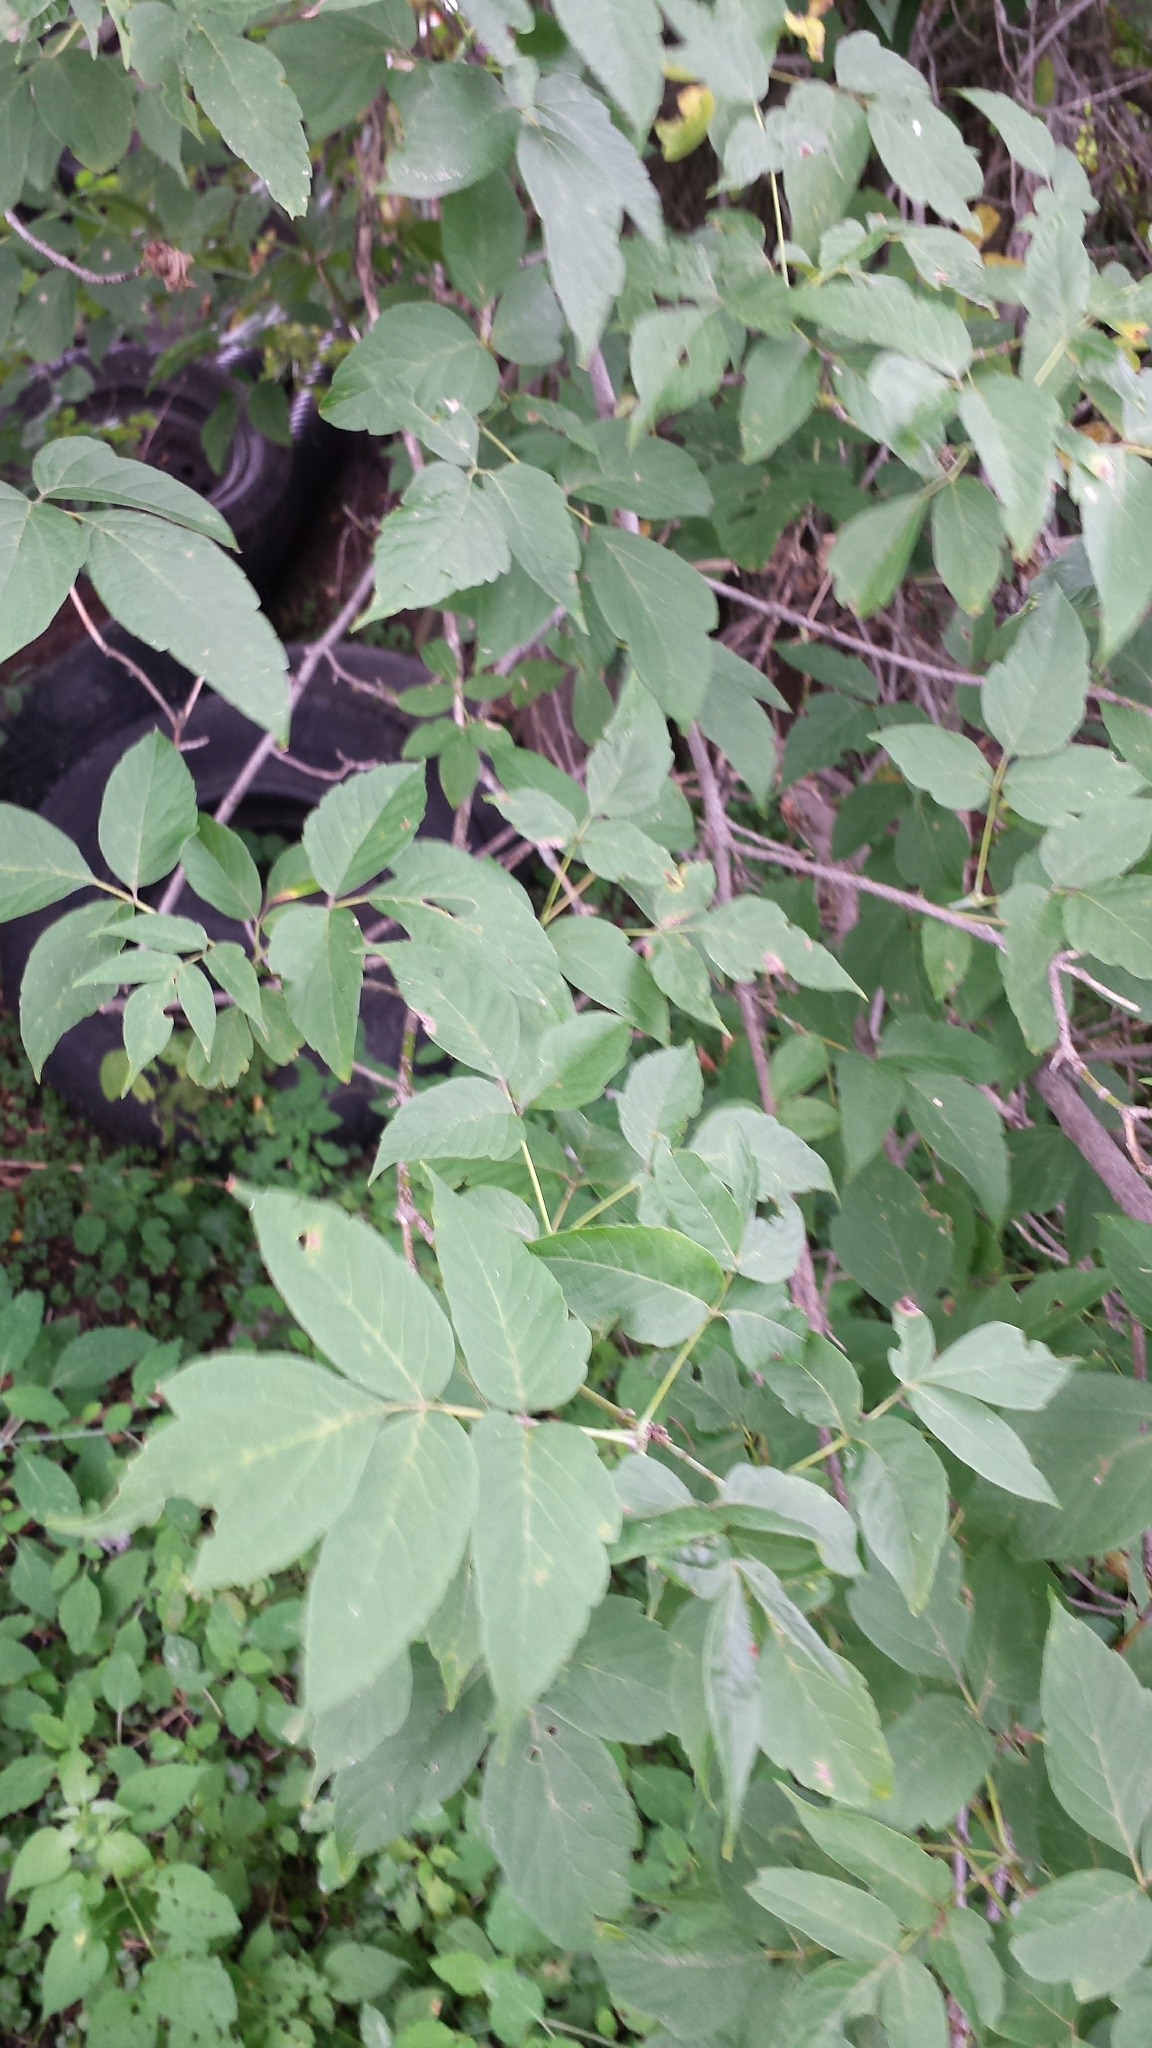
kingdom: Plantae
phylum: Tracheophyta
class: Magnoliopsida
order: Sapindales
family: Sapindaceae
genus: Acer
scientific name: Acer negundo
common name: Ashleaf maple
